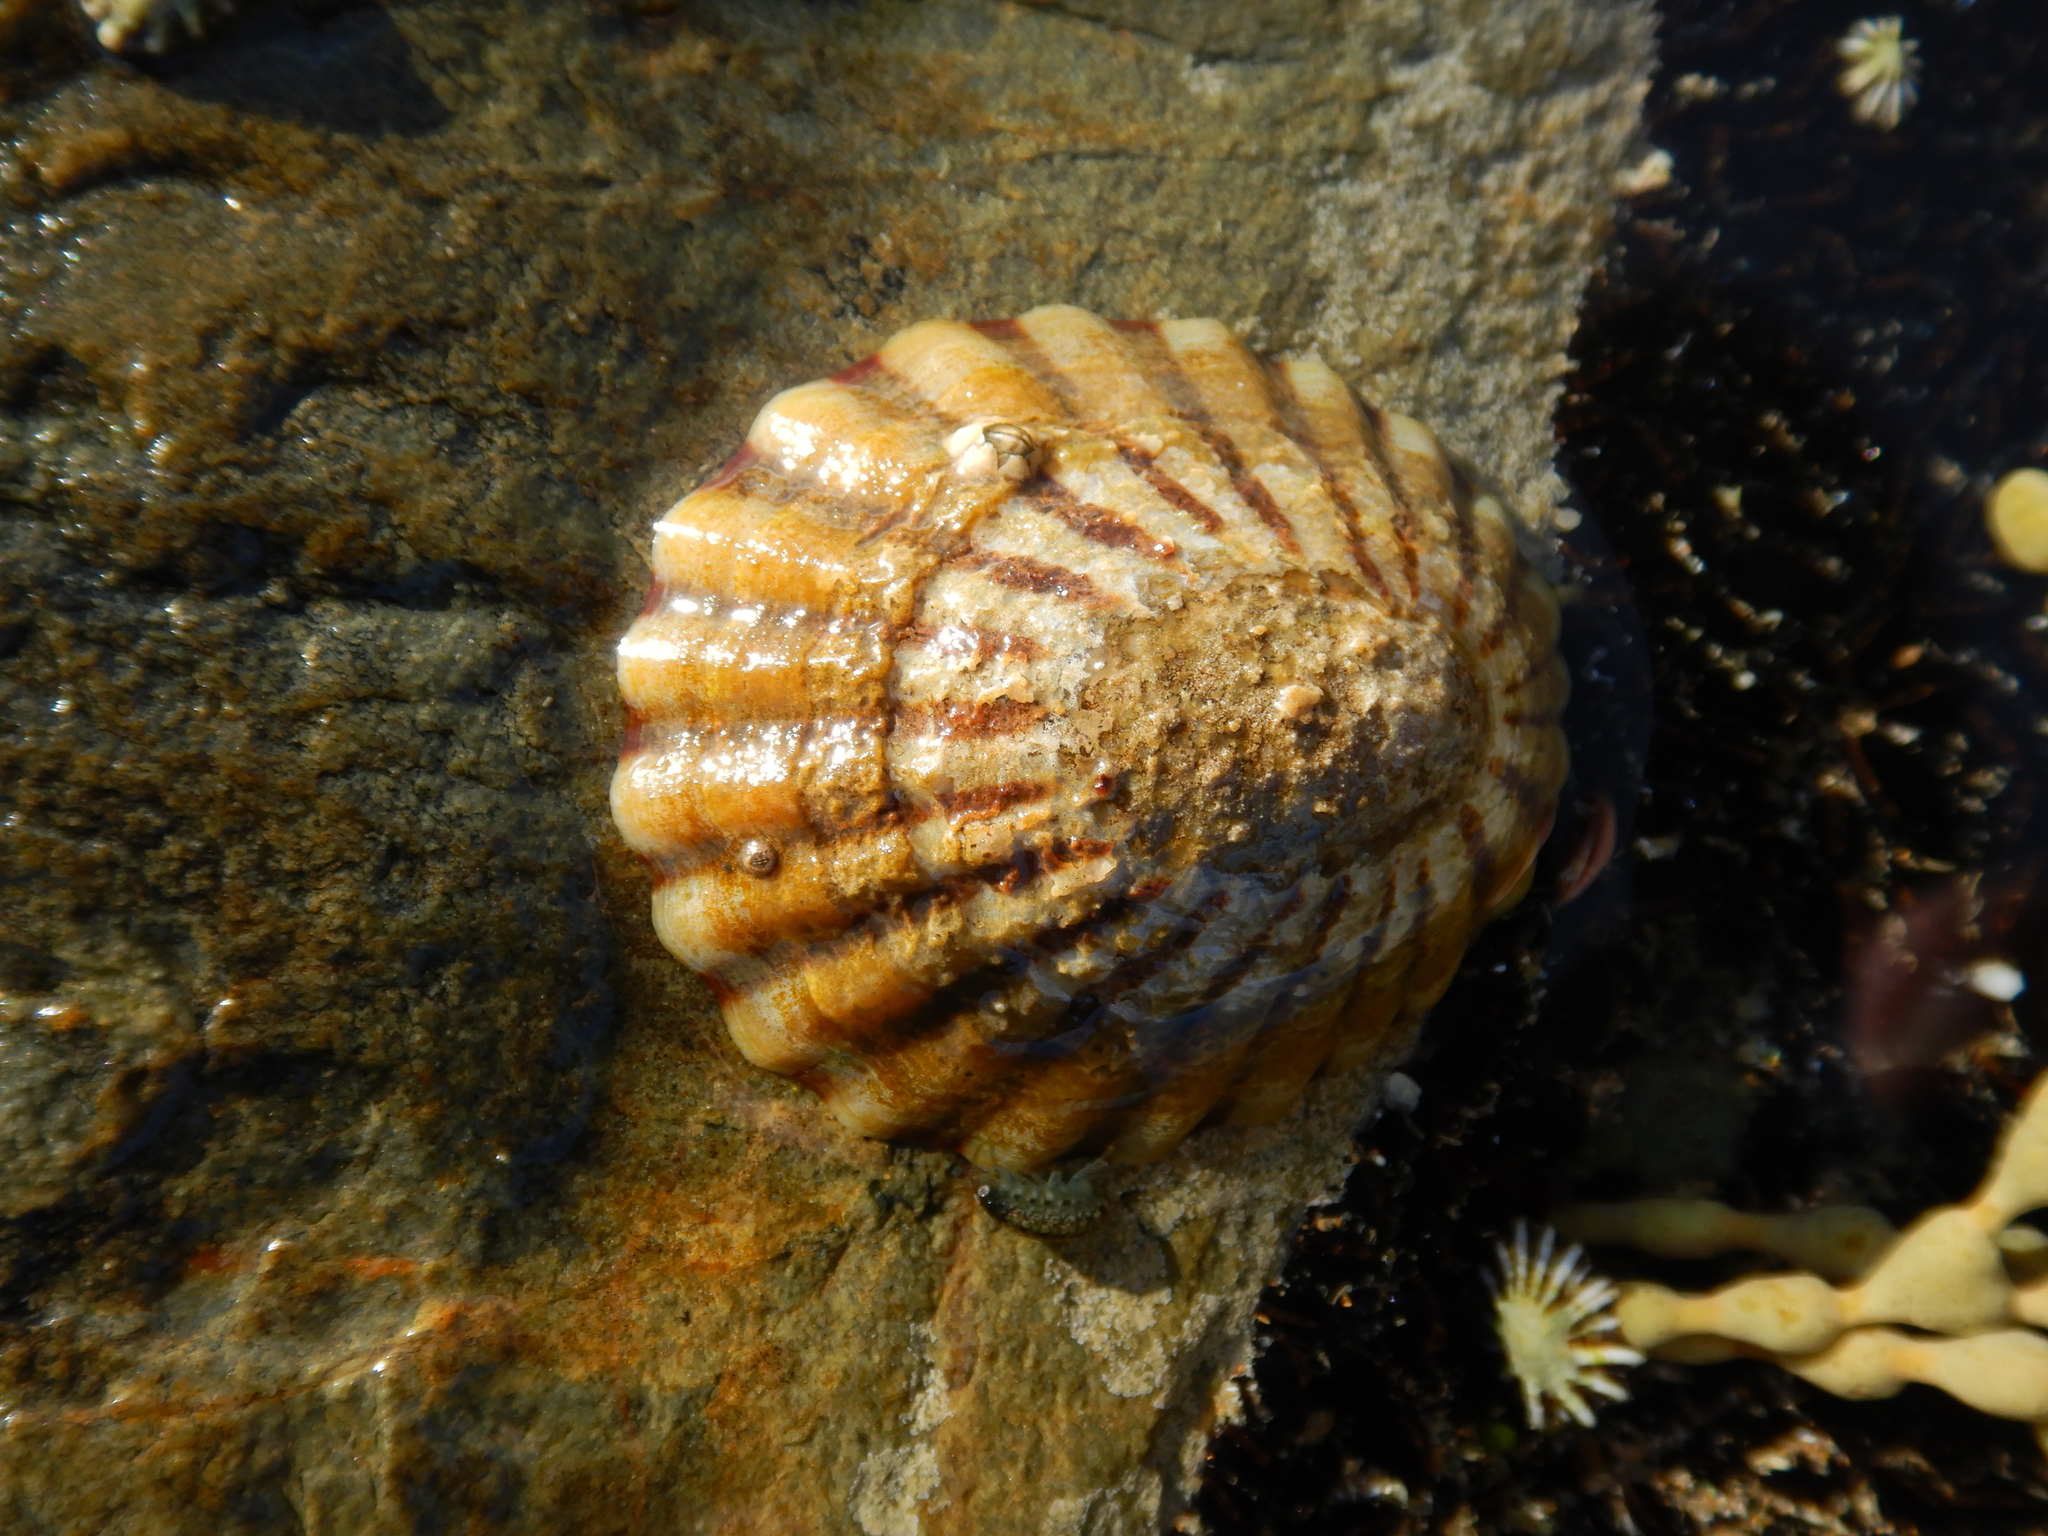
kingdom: Animalia
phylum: Mollusca
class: Gastropoda
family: Nacellidae
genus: Cellana
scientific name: Cellana solida
